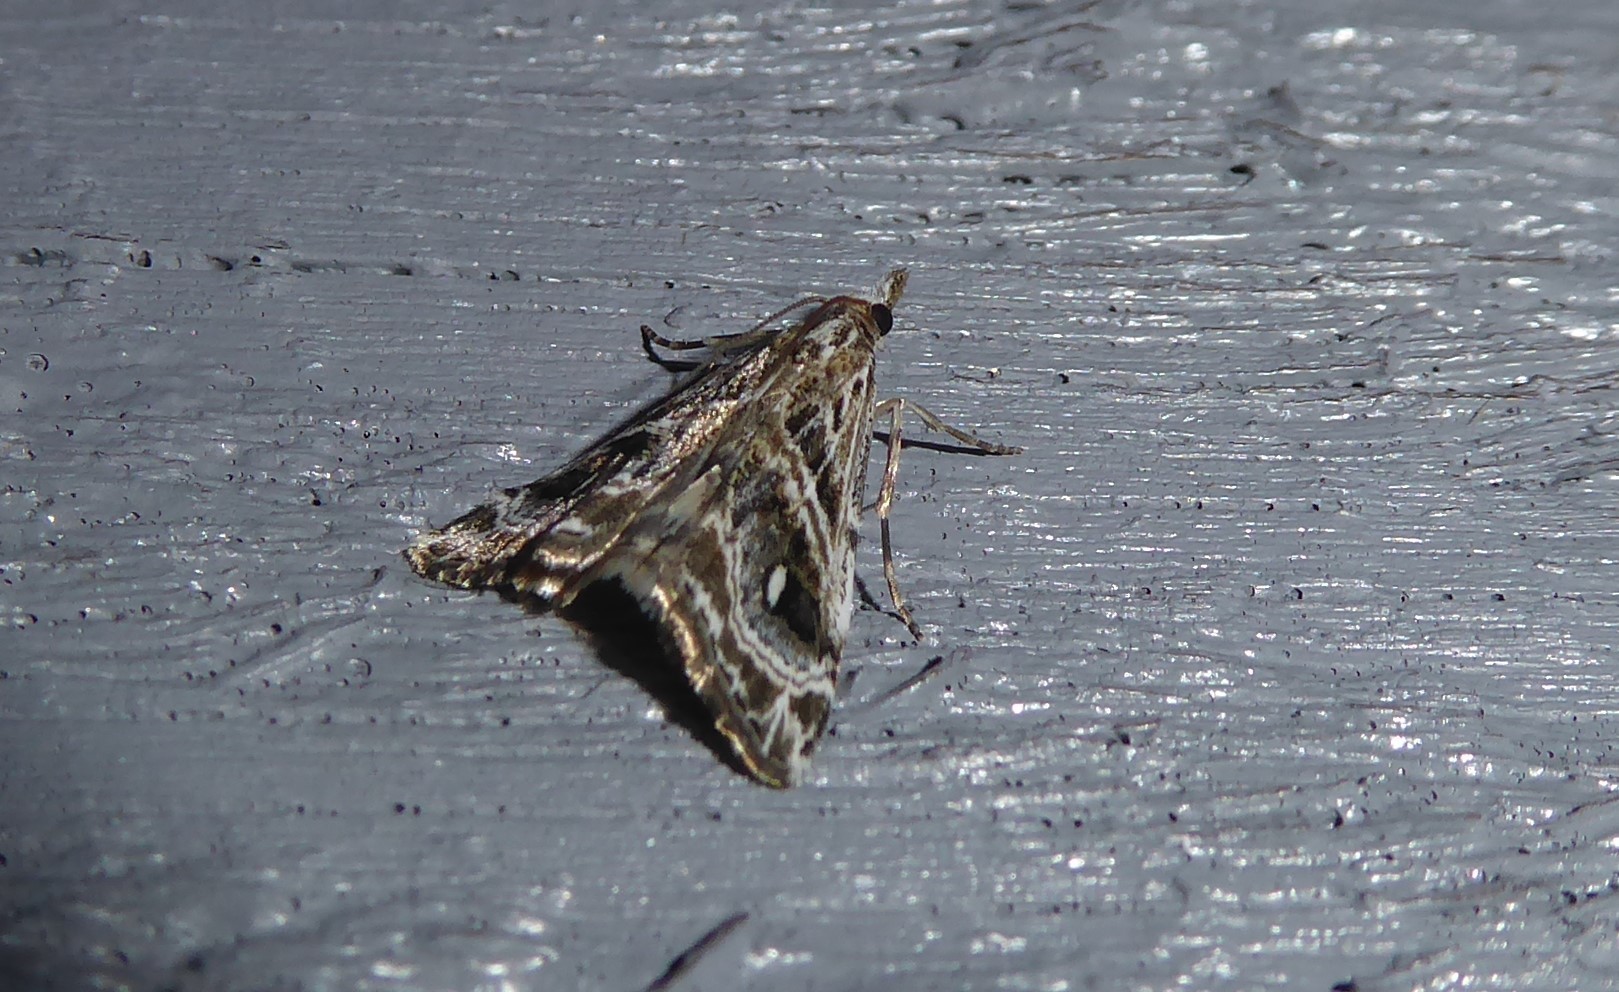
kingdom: Animalia
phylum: Arthropoda
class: Insecta
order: Lepidoptera
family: Crambidae
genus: Gadira
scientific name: Gadira acerella
